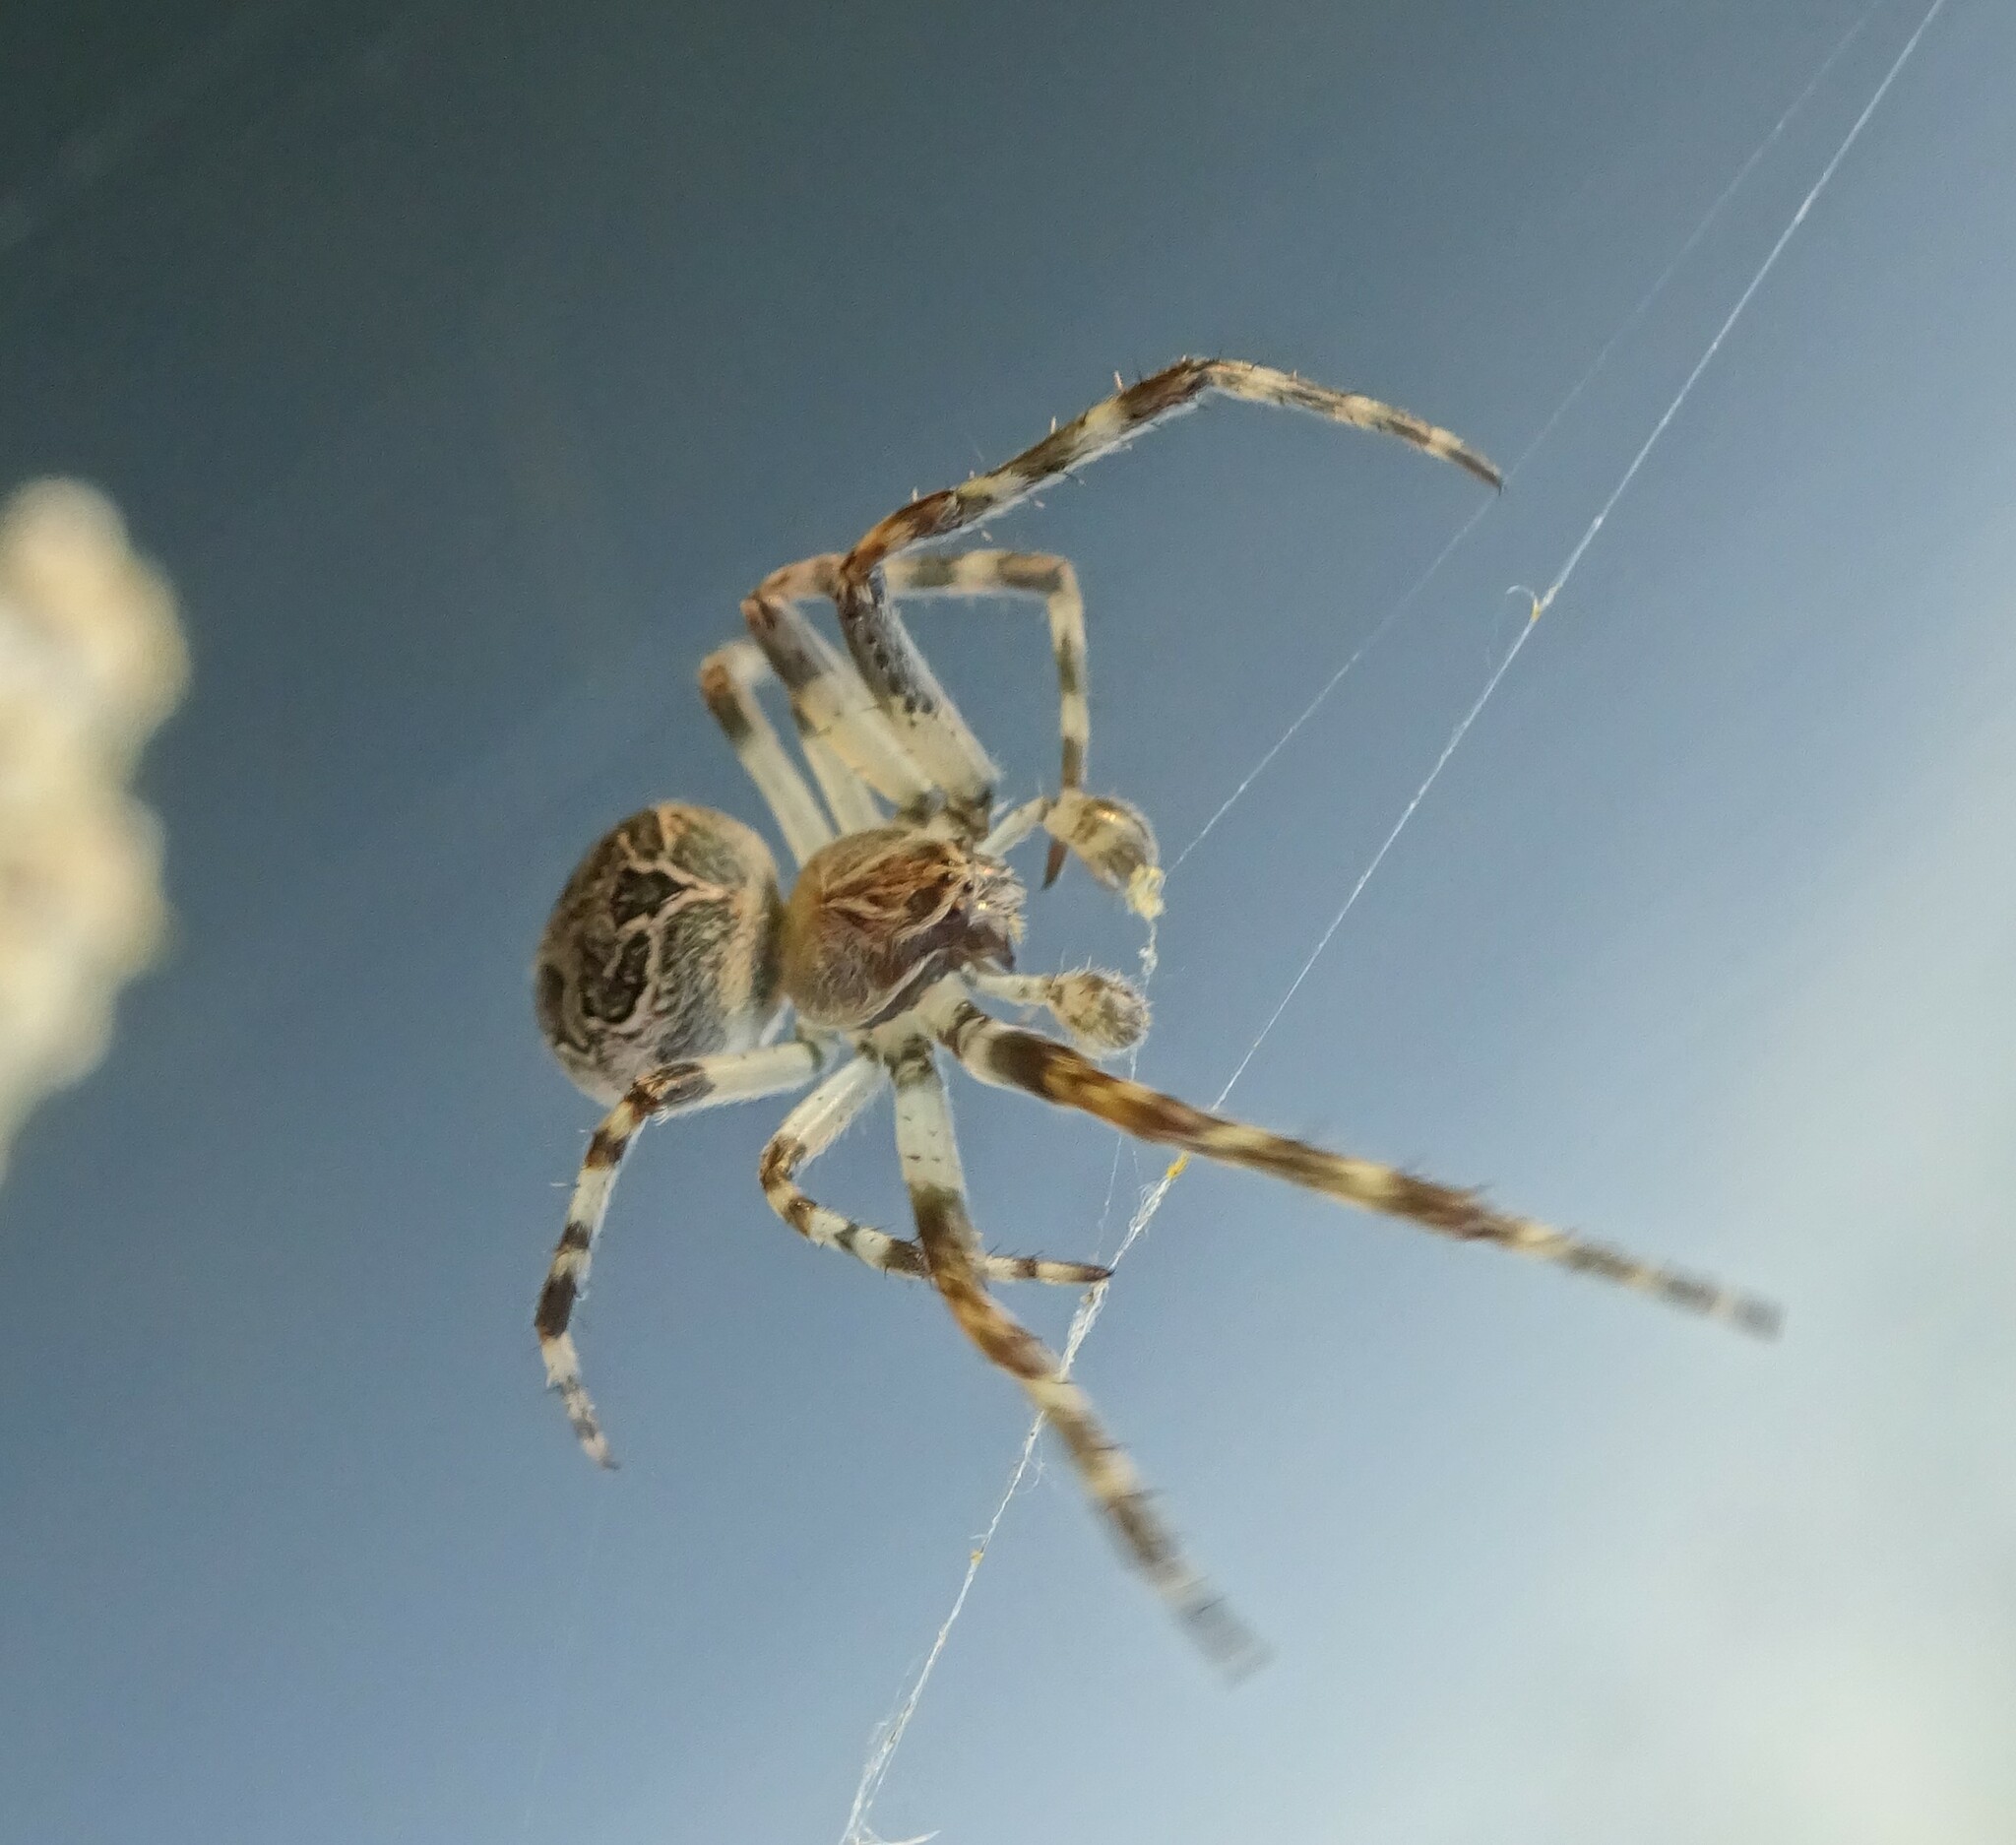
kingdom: Animalia
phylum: Arthropoda
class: Arachnida
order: Araneae
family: Araneidae
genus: Larinioides
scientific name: Larinioides sclopetarius
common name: Bridge orbweaver
